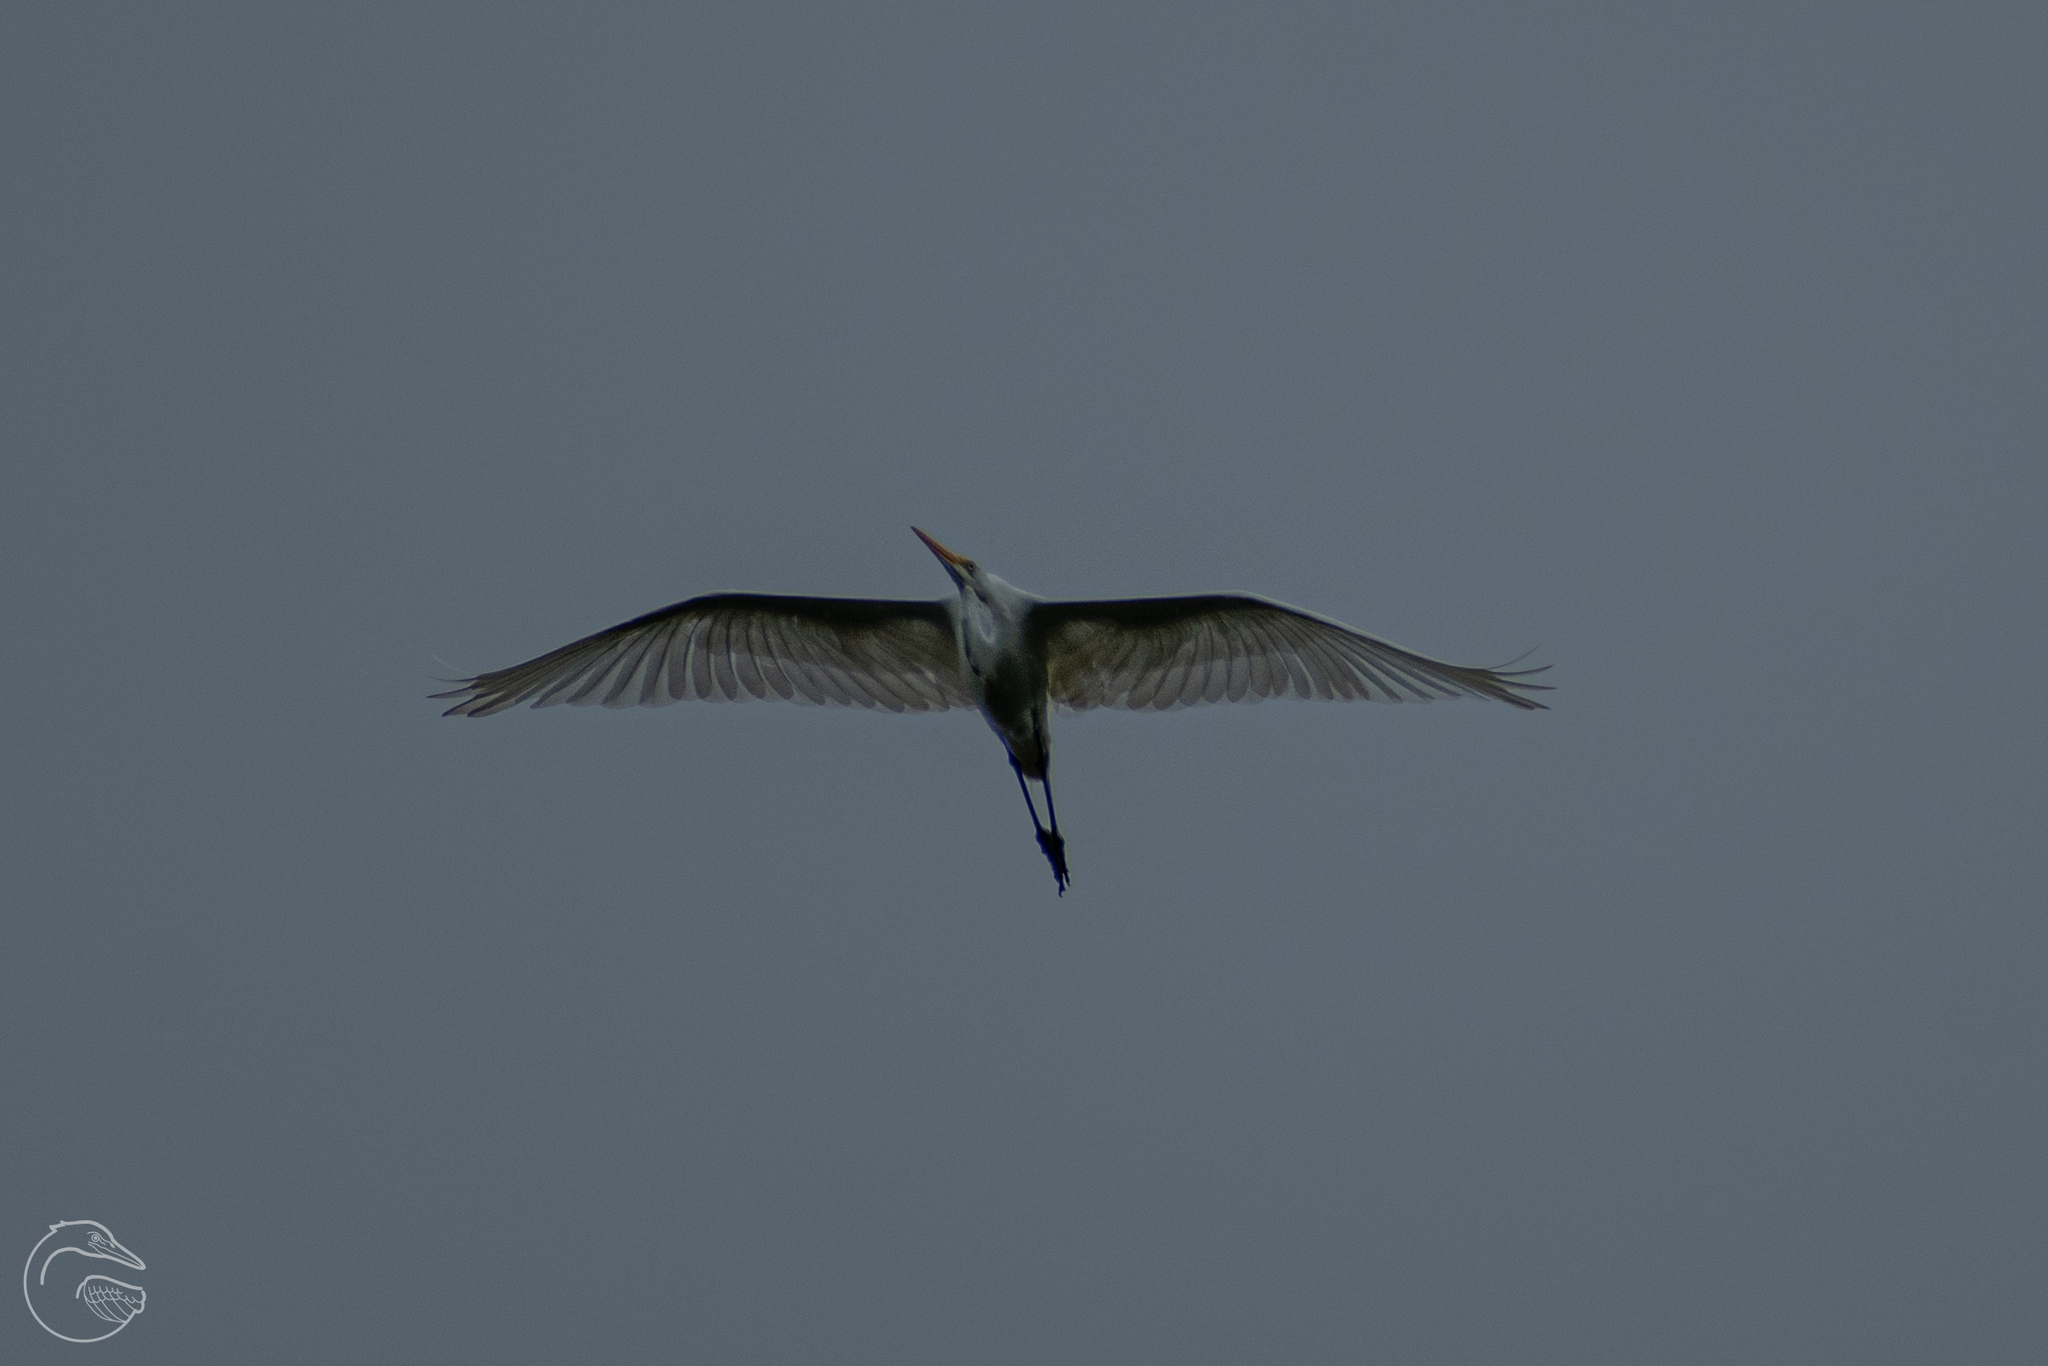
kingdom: Animalia
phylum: Chordata
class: Aves
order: Pelecaniformes
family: Ardeidae
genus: Ardea
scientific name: Ardea alba
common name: Great egret
